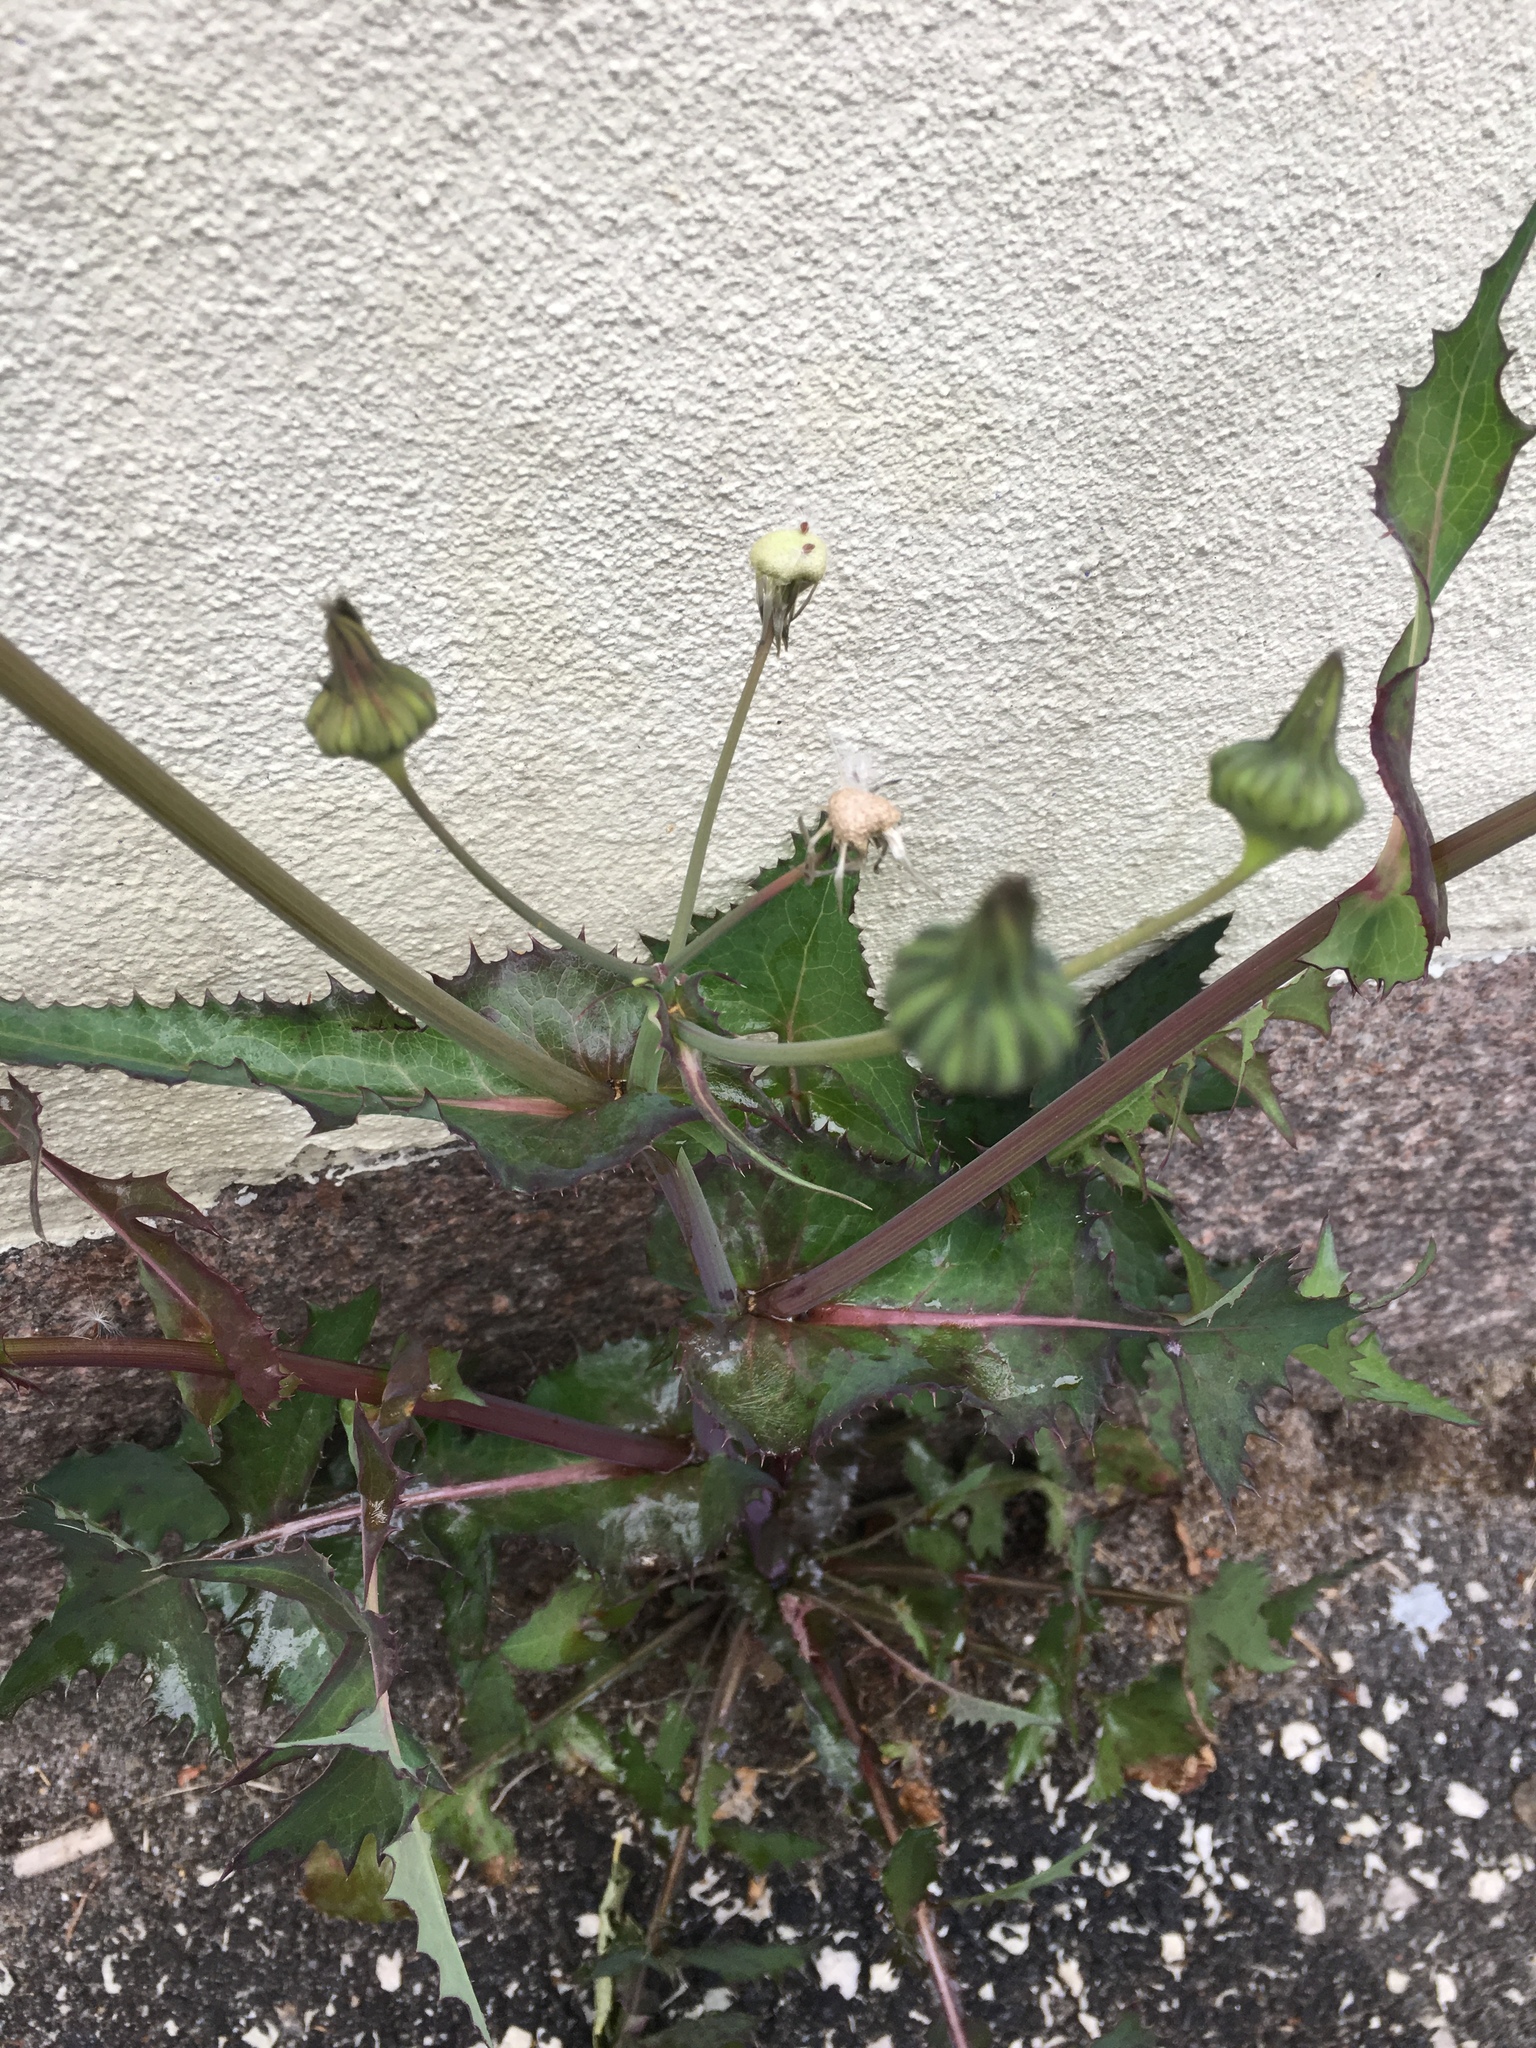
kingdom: Plantae
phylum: Tracheophyta
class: Magnoliopsida
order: Asterales
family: Asteraceae
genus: Sonchus
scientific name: Sonchus asper
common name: Prickly sow-thistle
